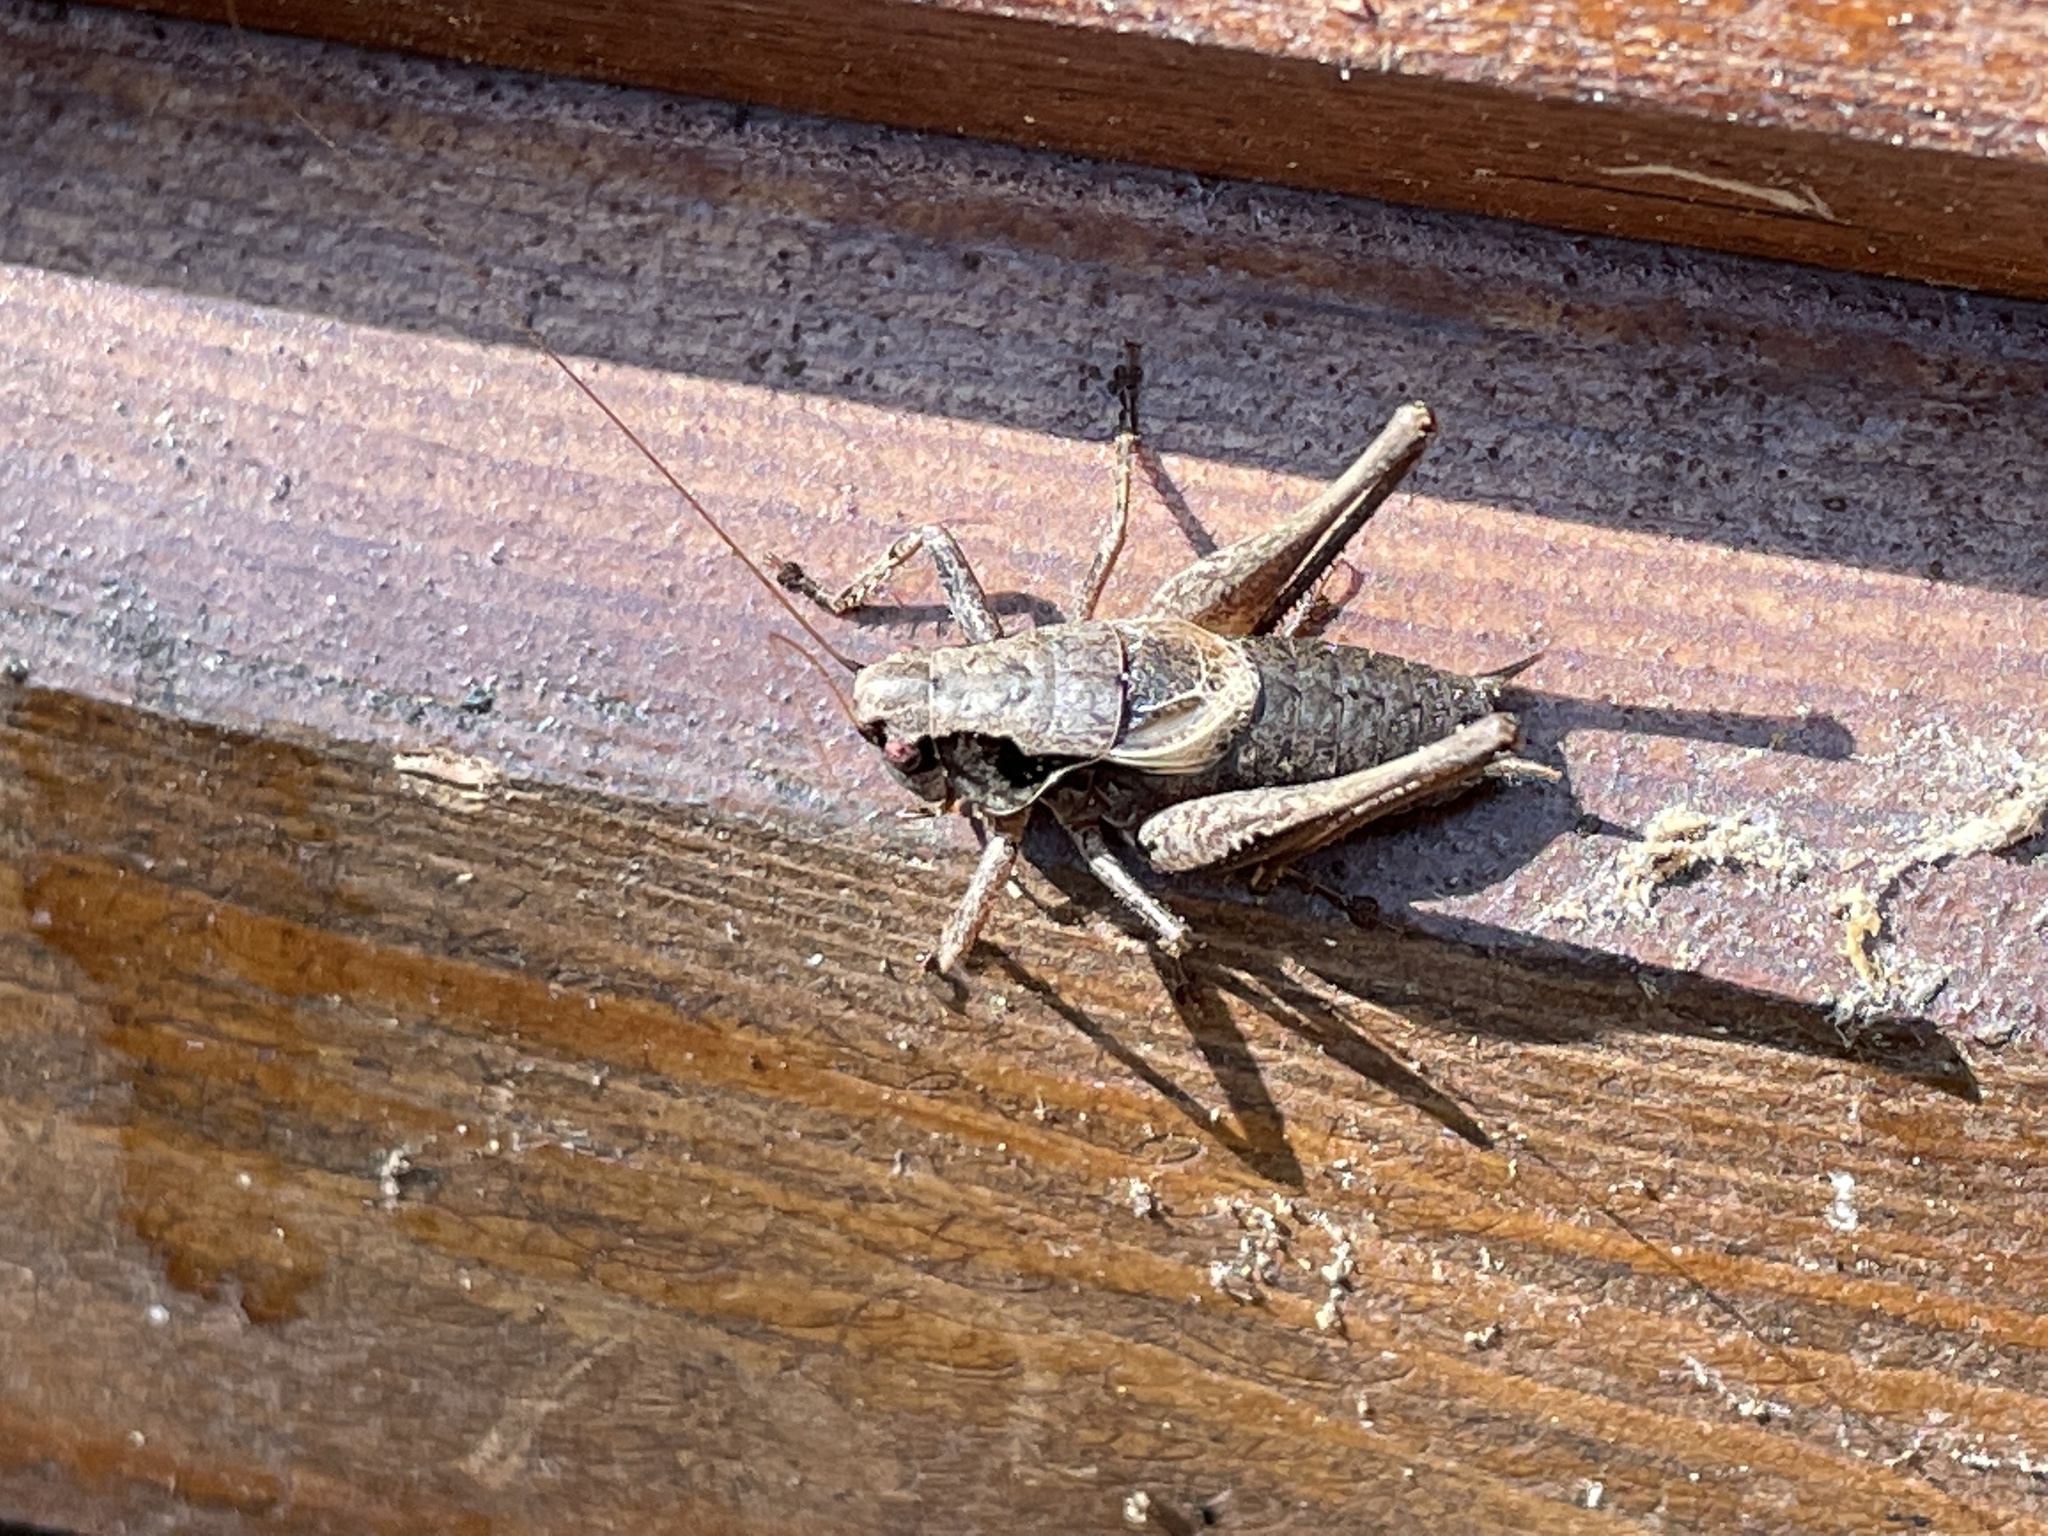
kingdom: Animalia
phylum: Arthropoda
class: Insecta
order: Orthoptera
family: Tettigoniidae
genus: Pholidoptera
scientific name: Pholidoptera griseoaptera
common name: Dark bush-cricket
